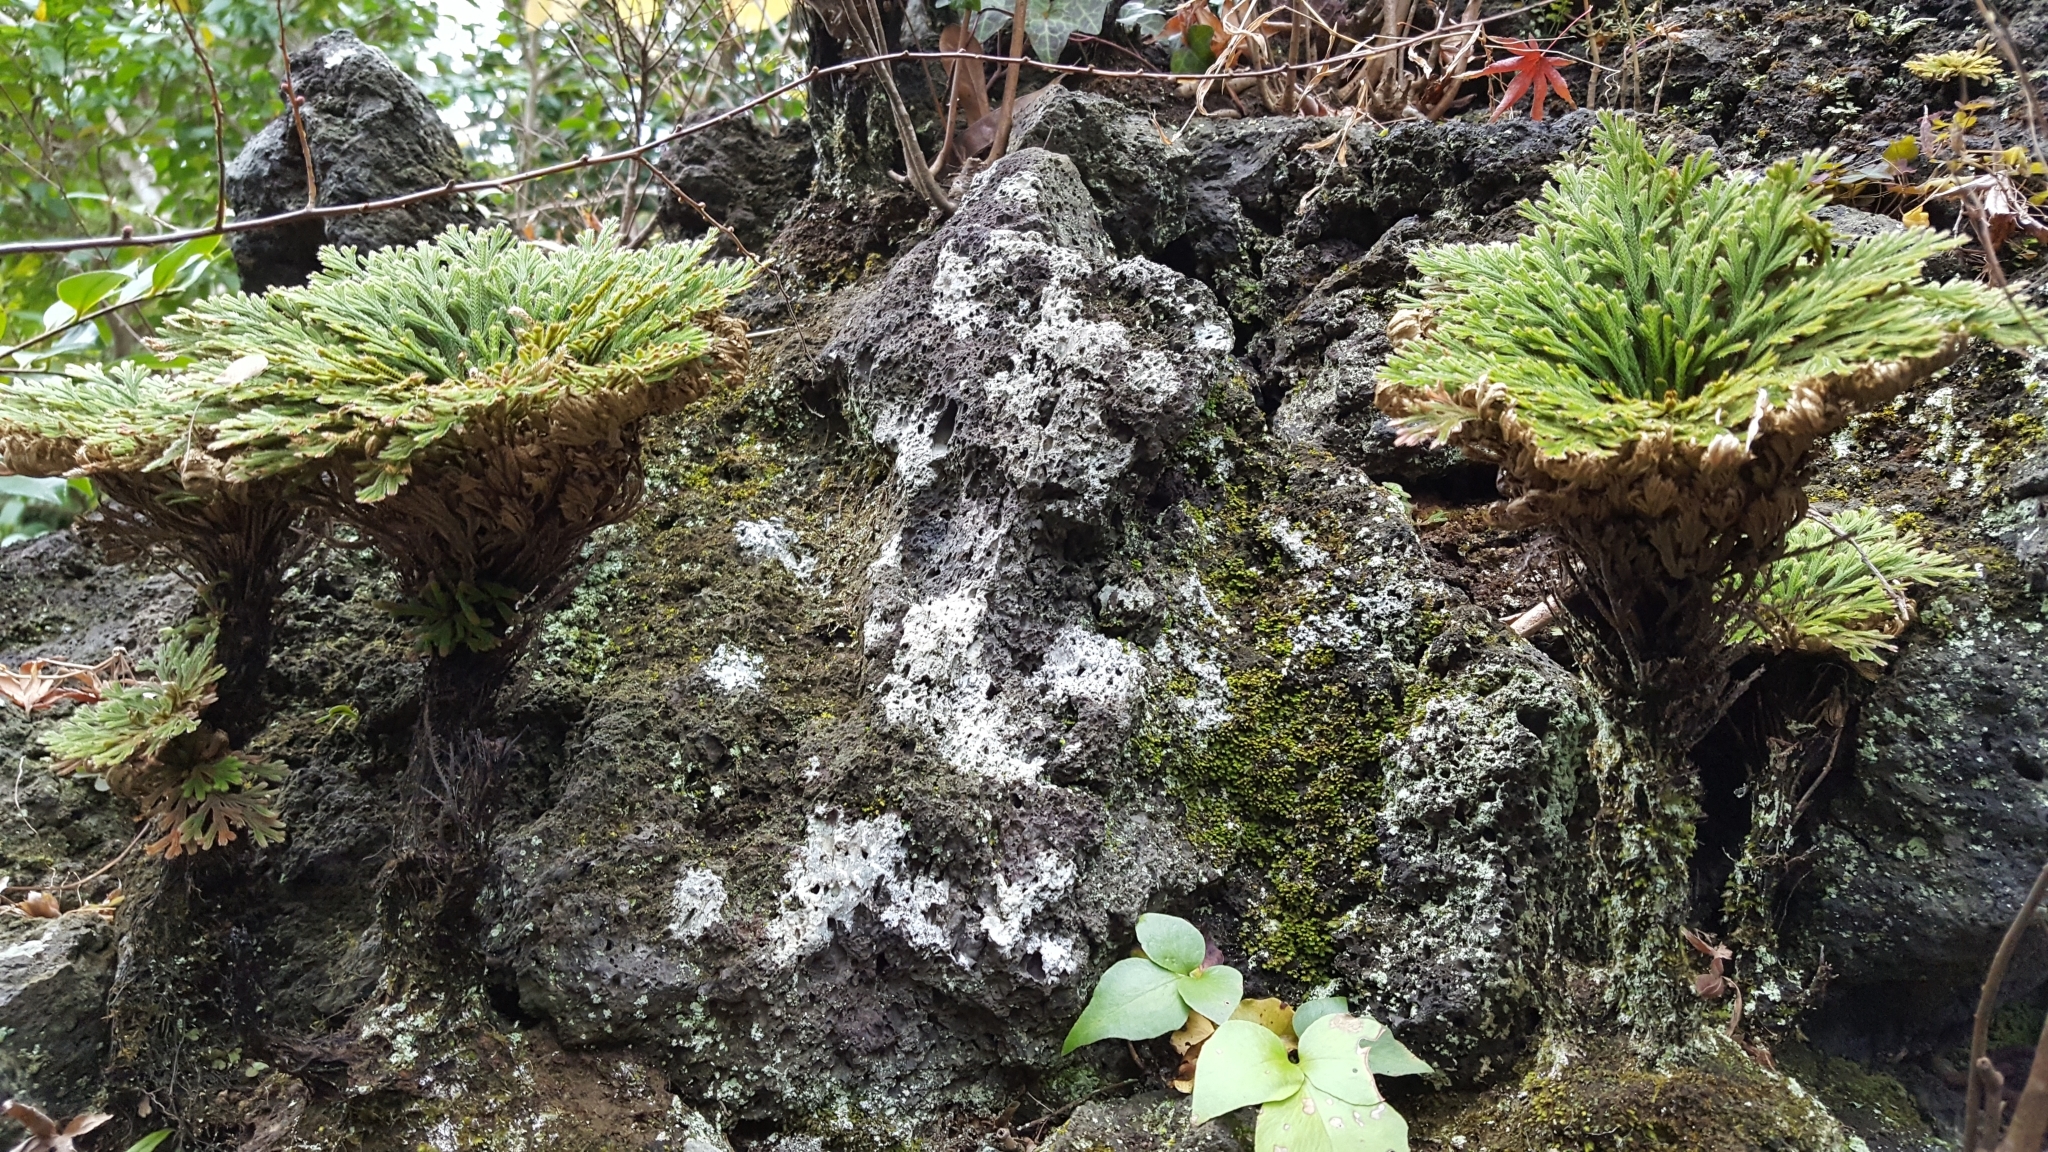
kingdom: Plantae
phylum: Tracheophyta
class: Lycopodiopsida
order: Selaginellales
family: Selaginellaceae
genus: Selaginella
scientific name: Selaginella tamariscina
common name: Little-club-moss
